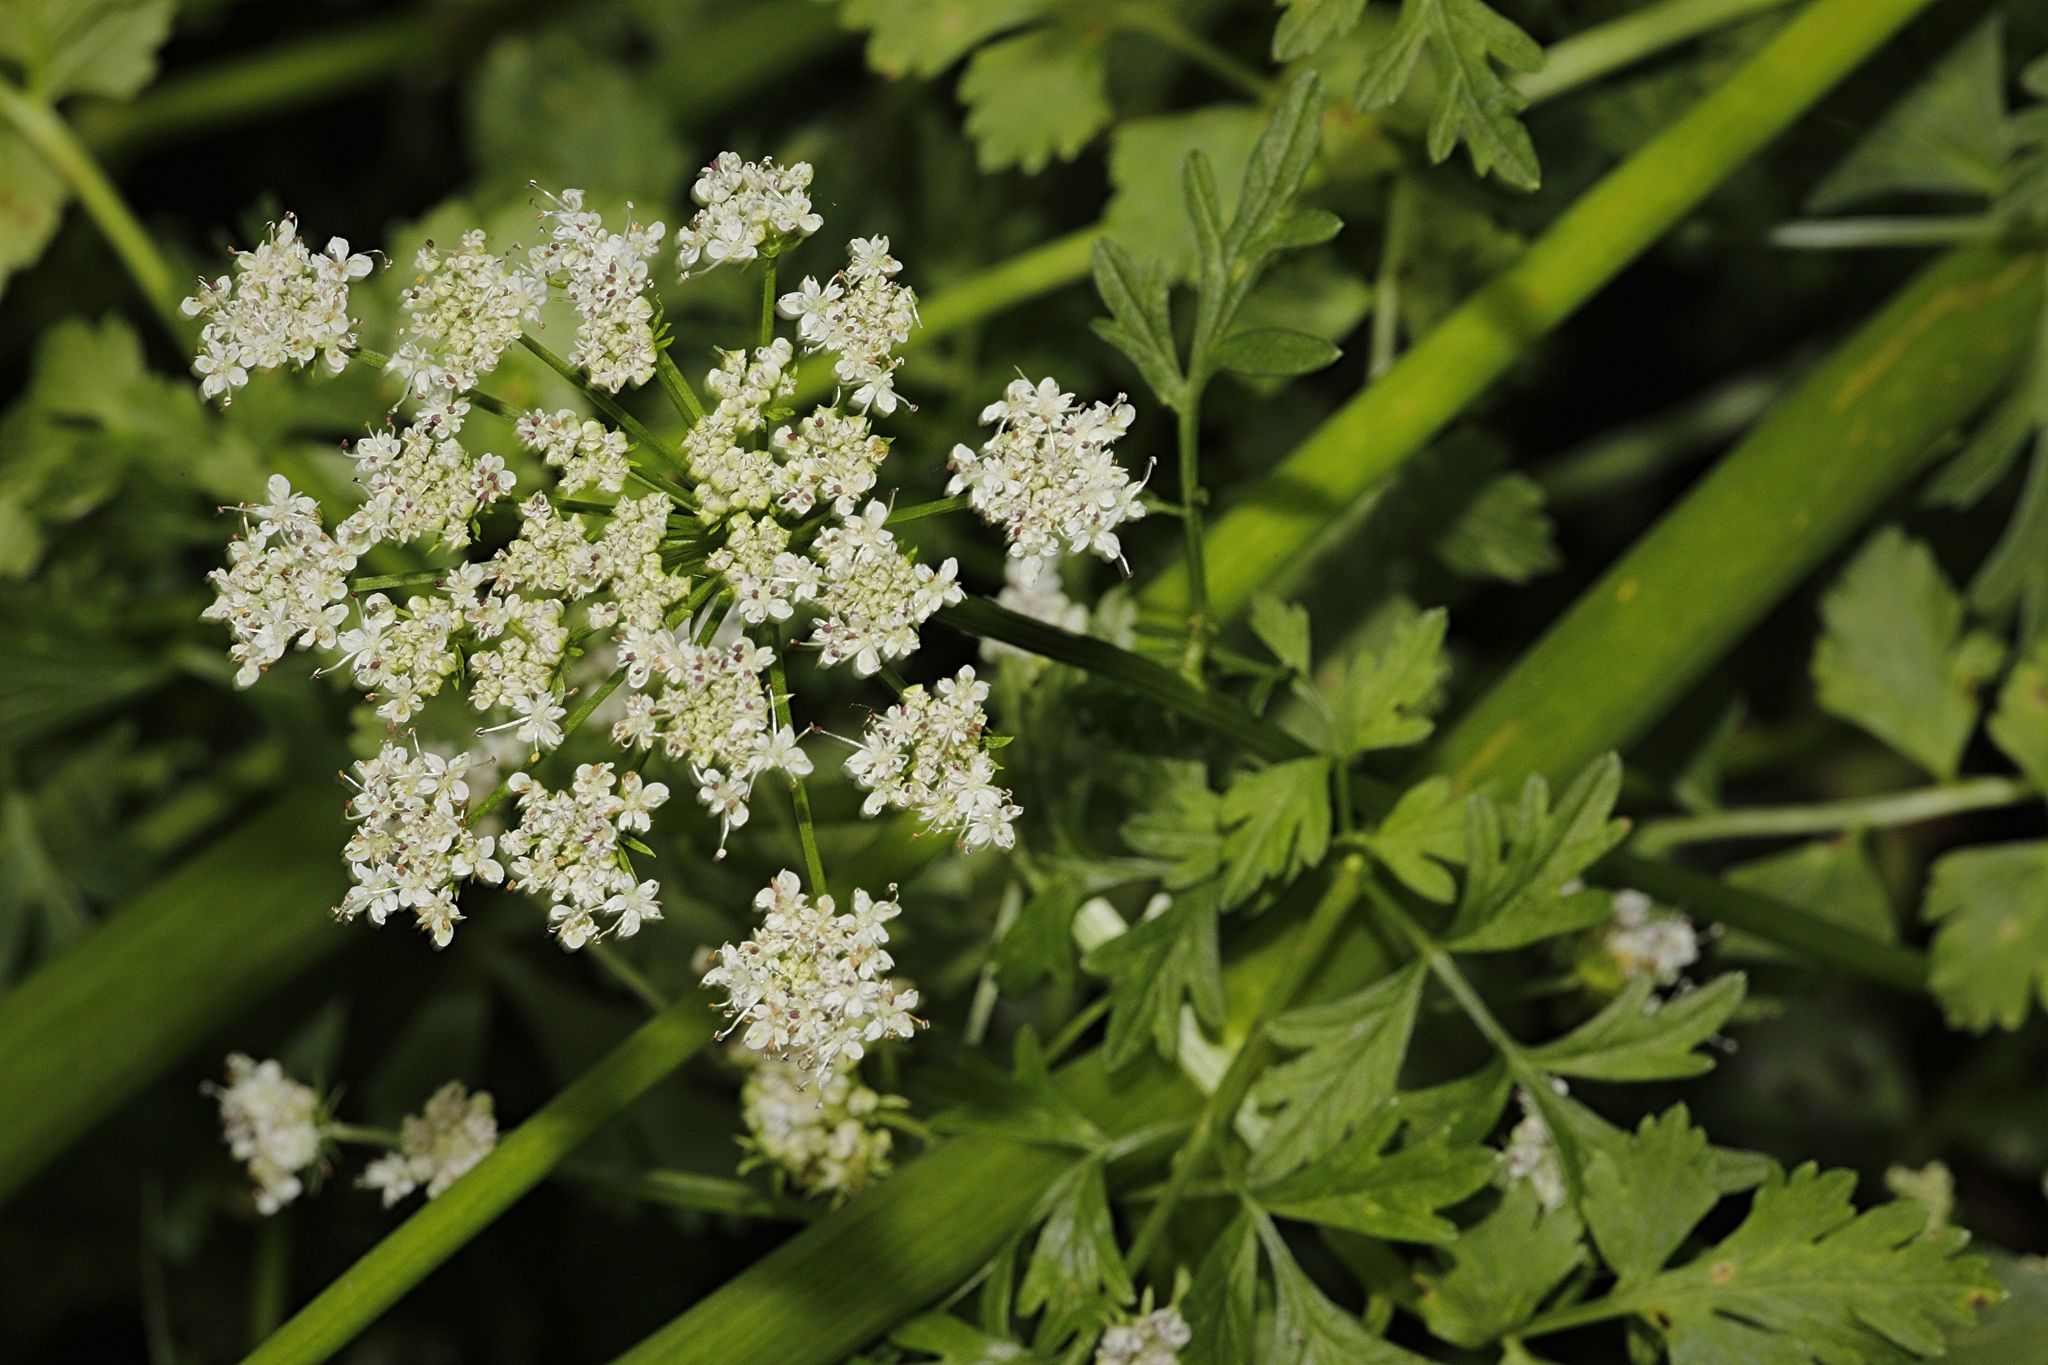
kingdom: Plantae
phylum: Tracheophyta
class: Magnoliopsida
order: Apiales
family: Apiaceae
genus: Oenanthe
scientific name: Oenanthe crocata
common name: Hemlock water-dropwort
